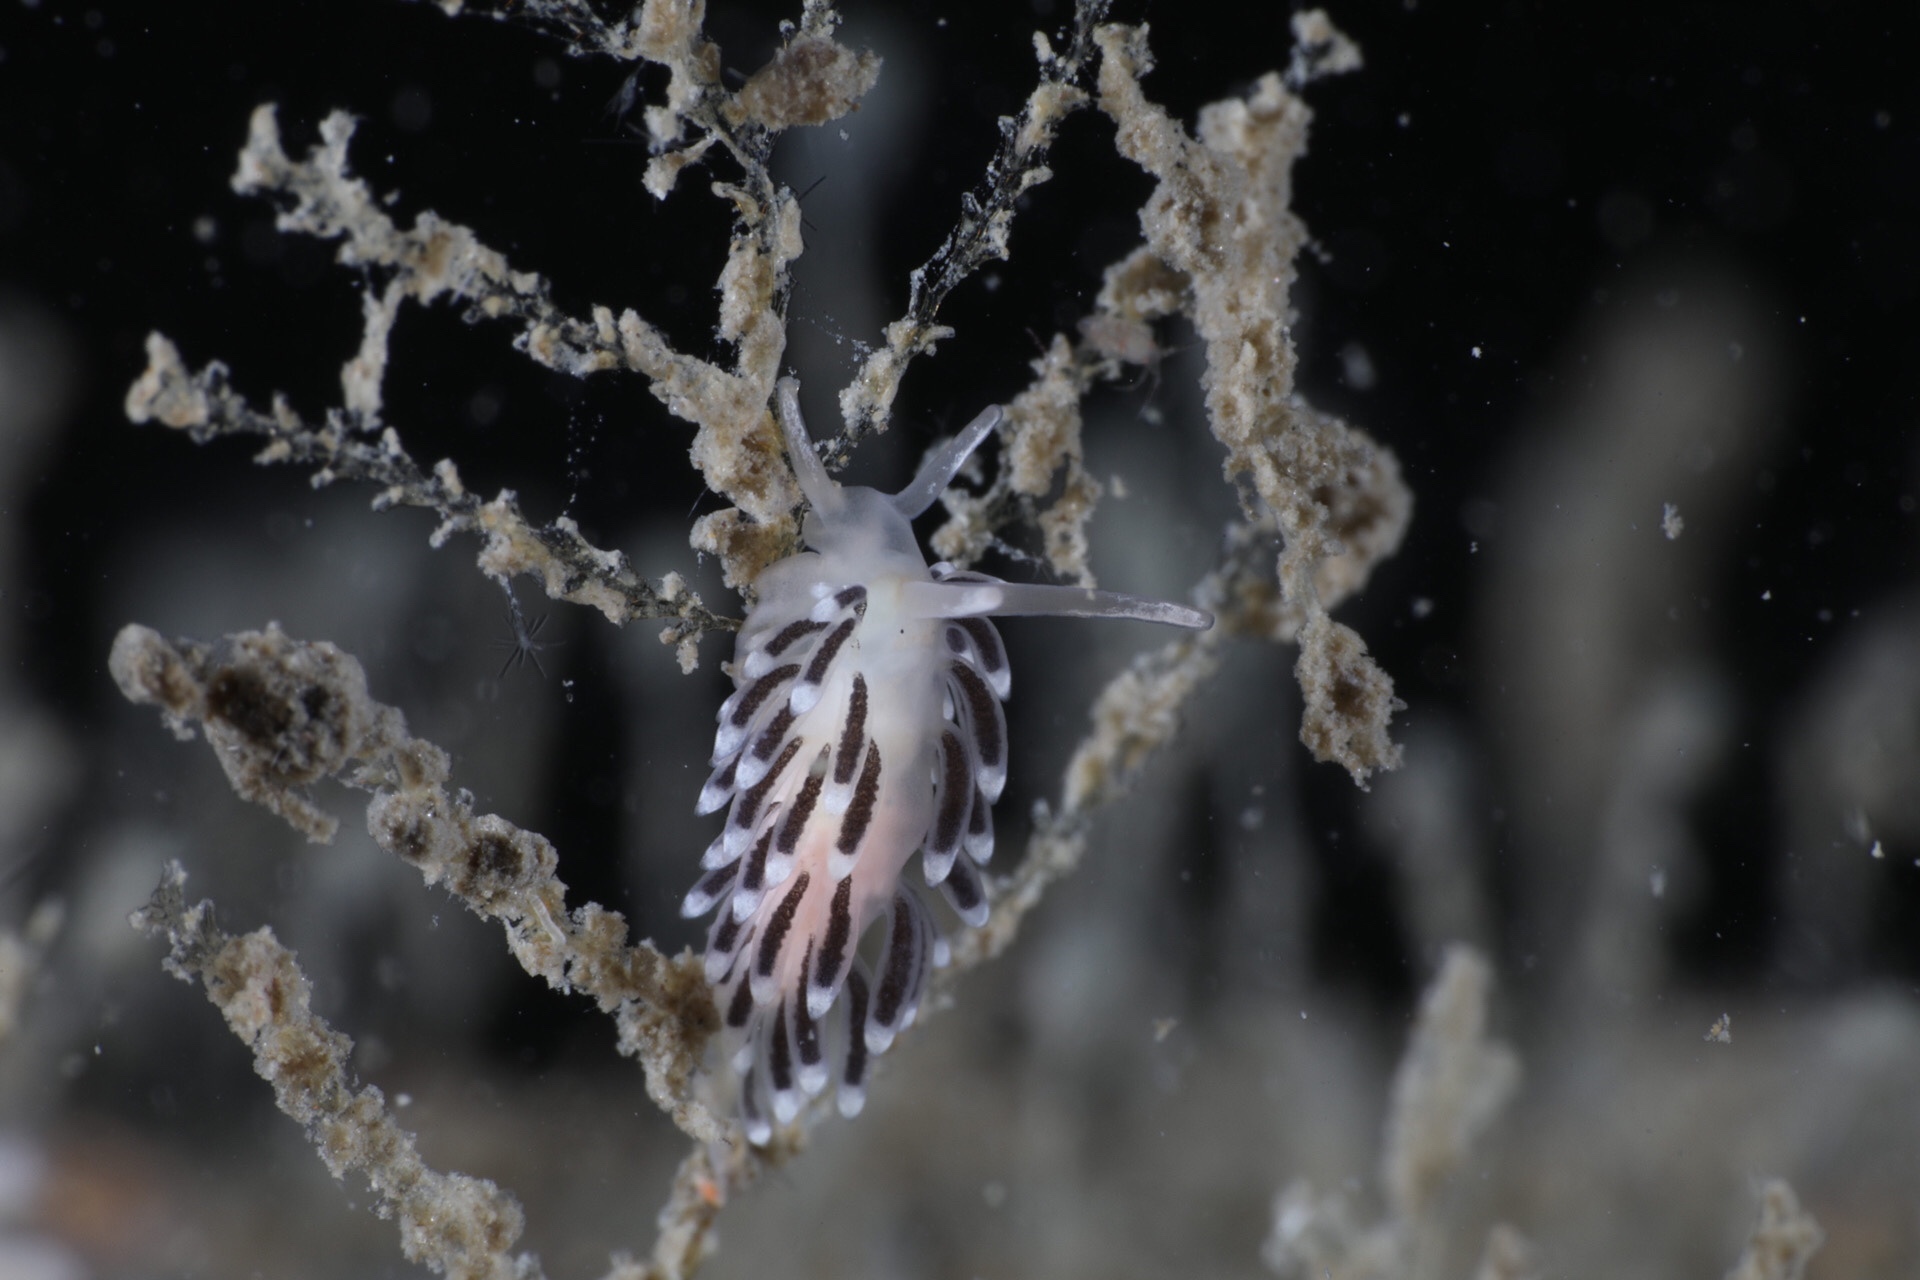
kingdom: Animalia
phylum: Mollusca
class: Gastropoda
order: Nudibranchia
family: Cuthonellidae
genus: Cuthonella
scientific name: Cuthonella concinna
